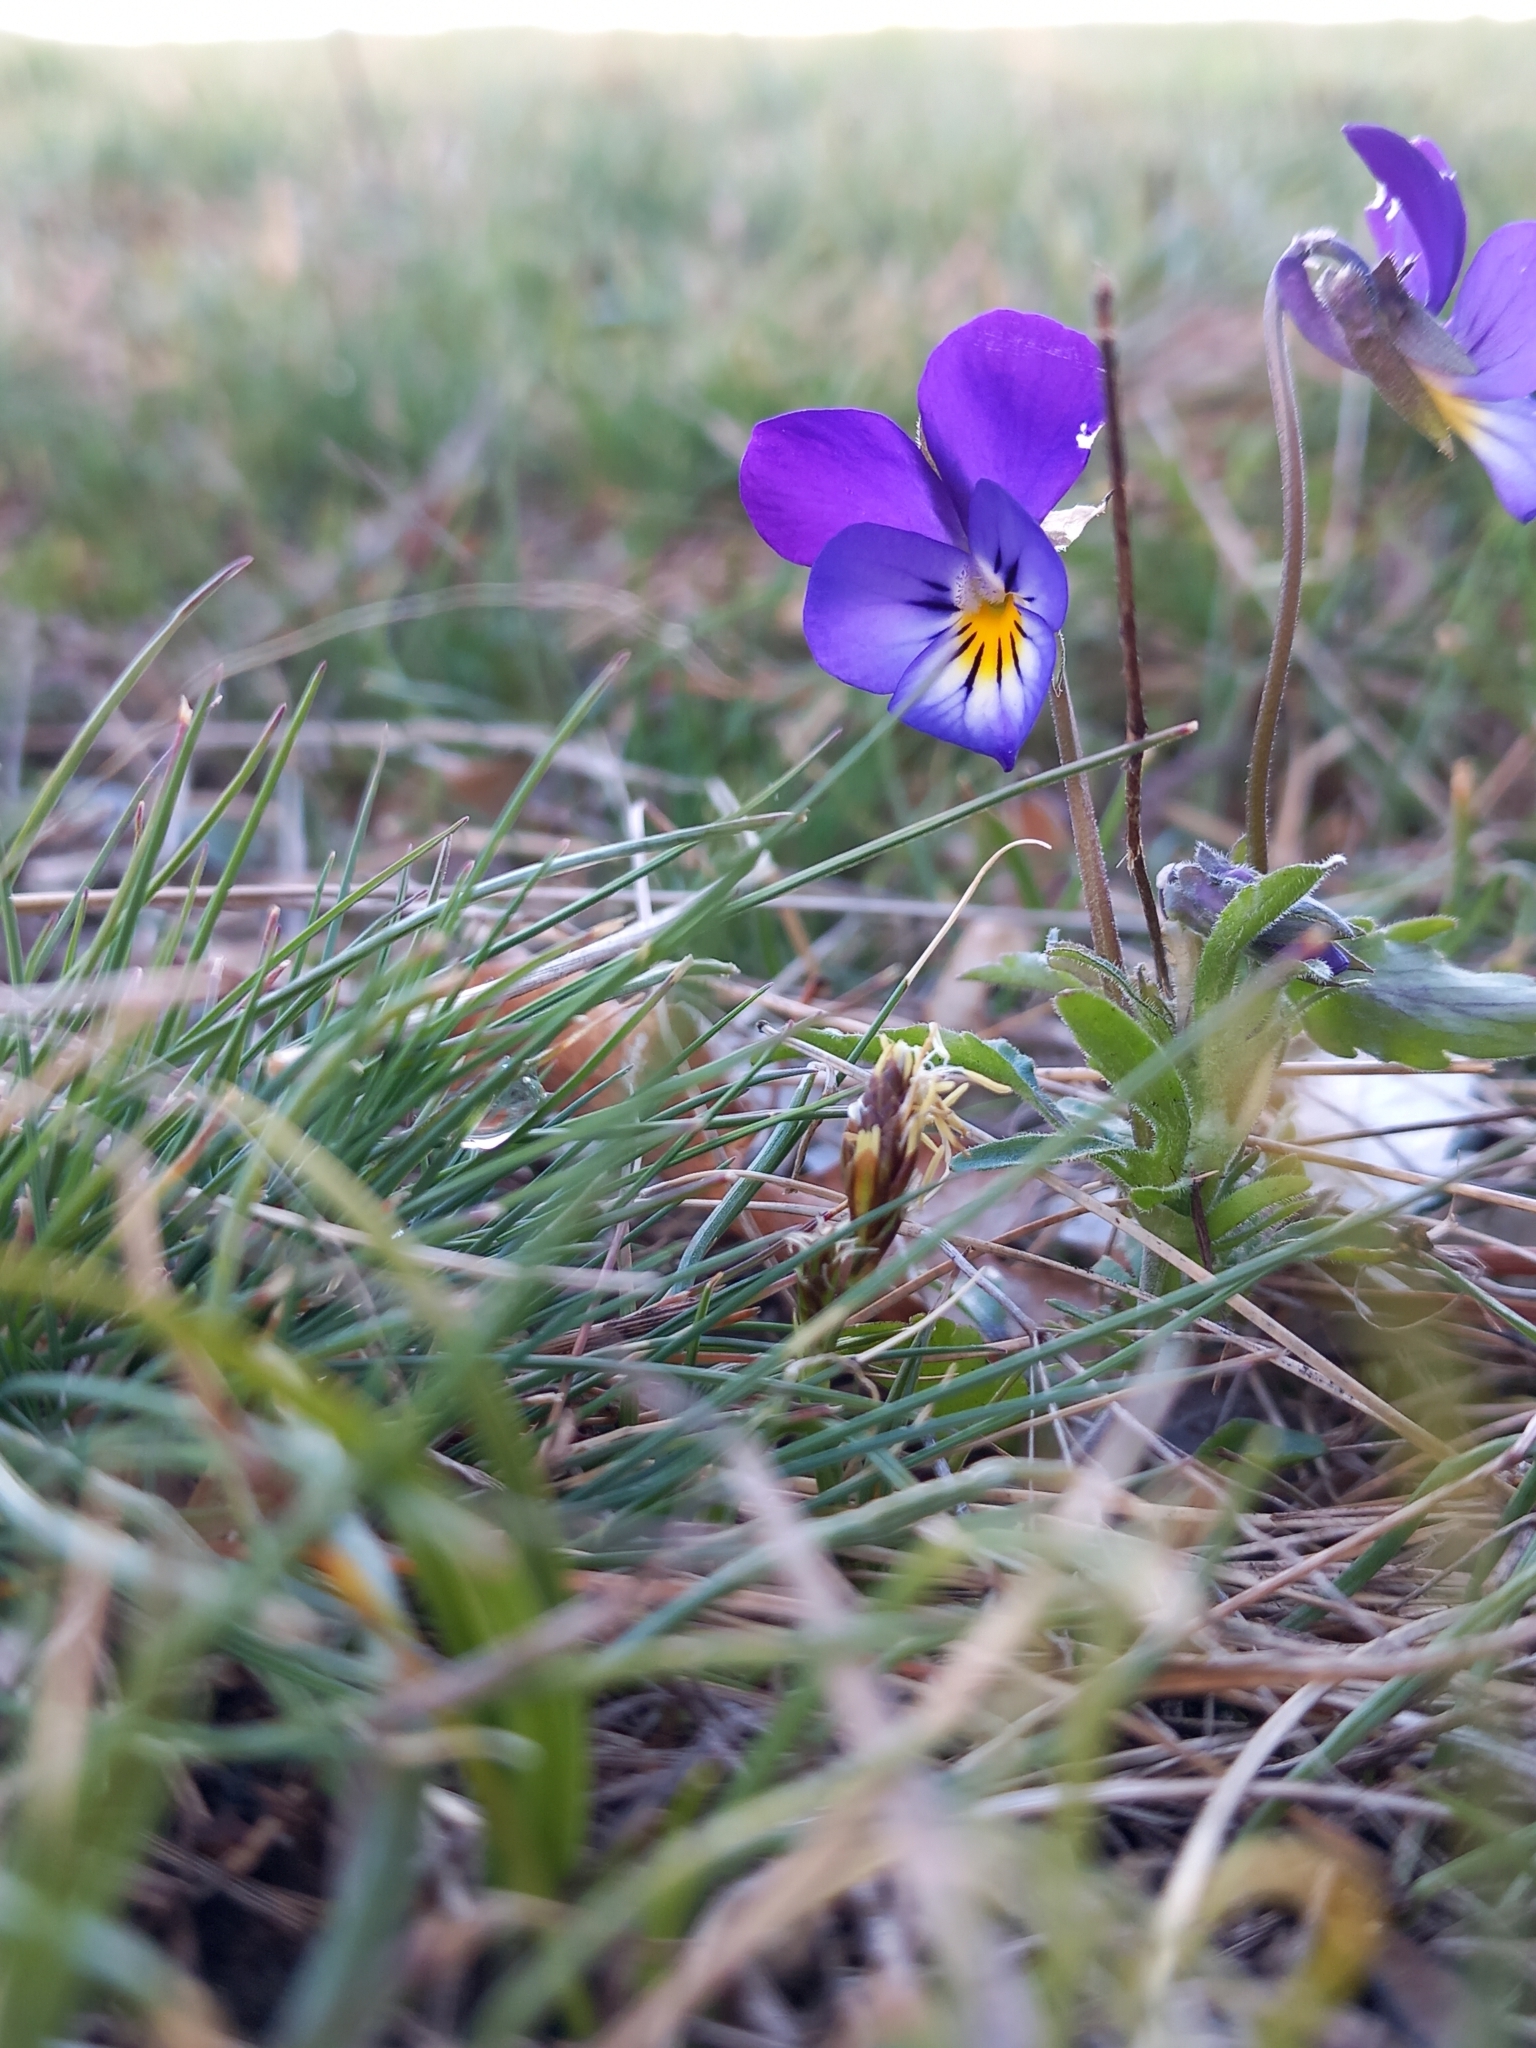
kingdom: Plantae
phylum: Tracheophyta
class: Magnoliopsida
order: Malpighiales
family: Violaceae
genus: Viola
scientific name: Viola tricolor
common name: Pansy
